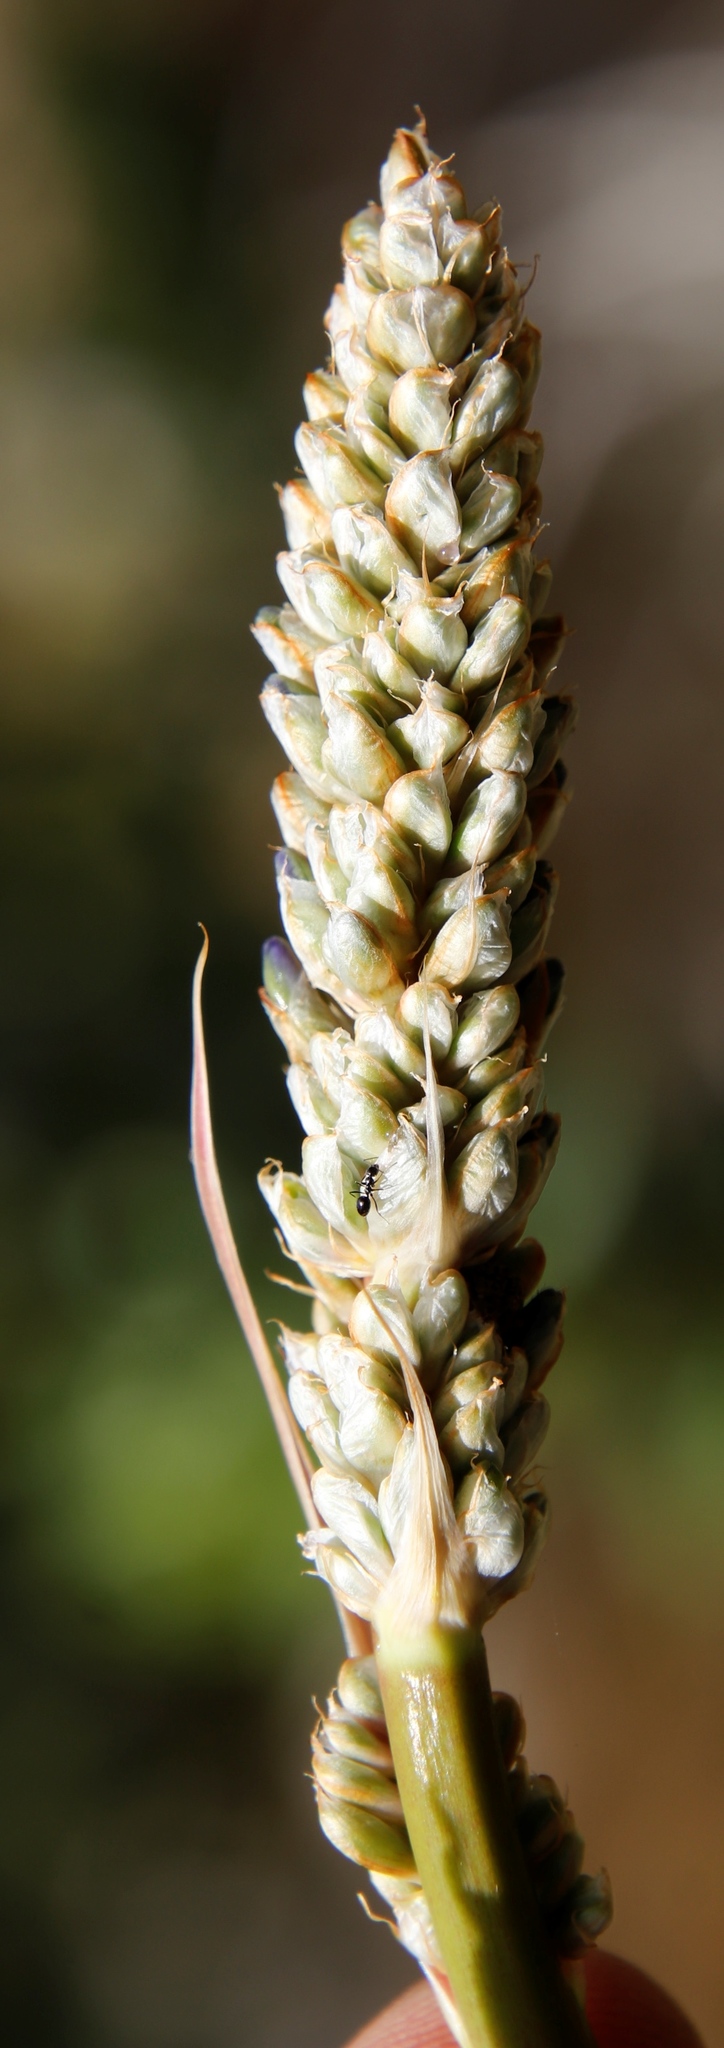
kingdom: Plantae
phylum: Tracheophyta
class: Liliopsida
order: Asparagales
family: Iridaceae
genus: Aristea
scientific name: Aristea capitata
